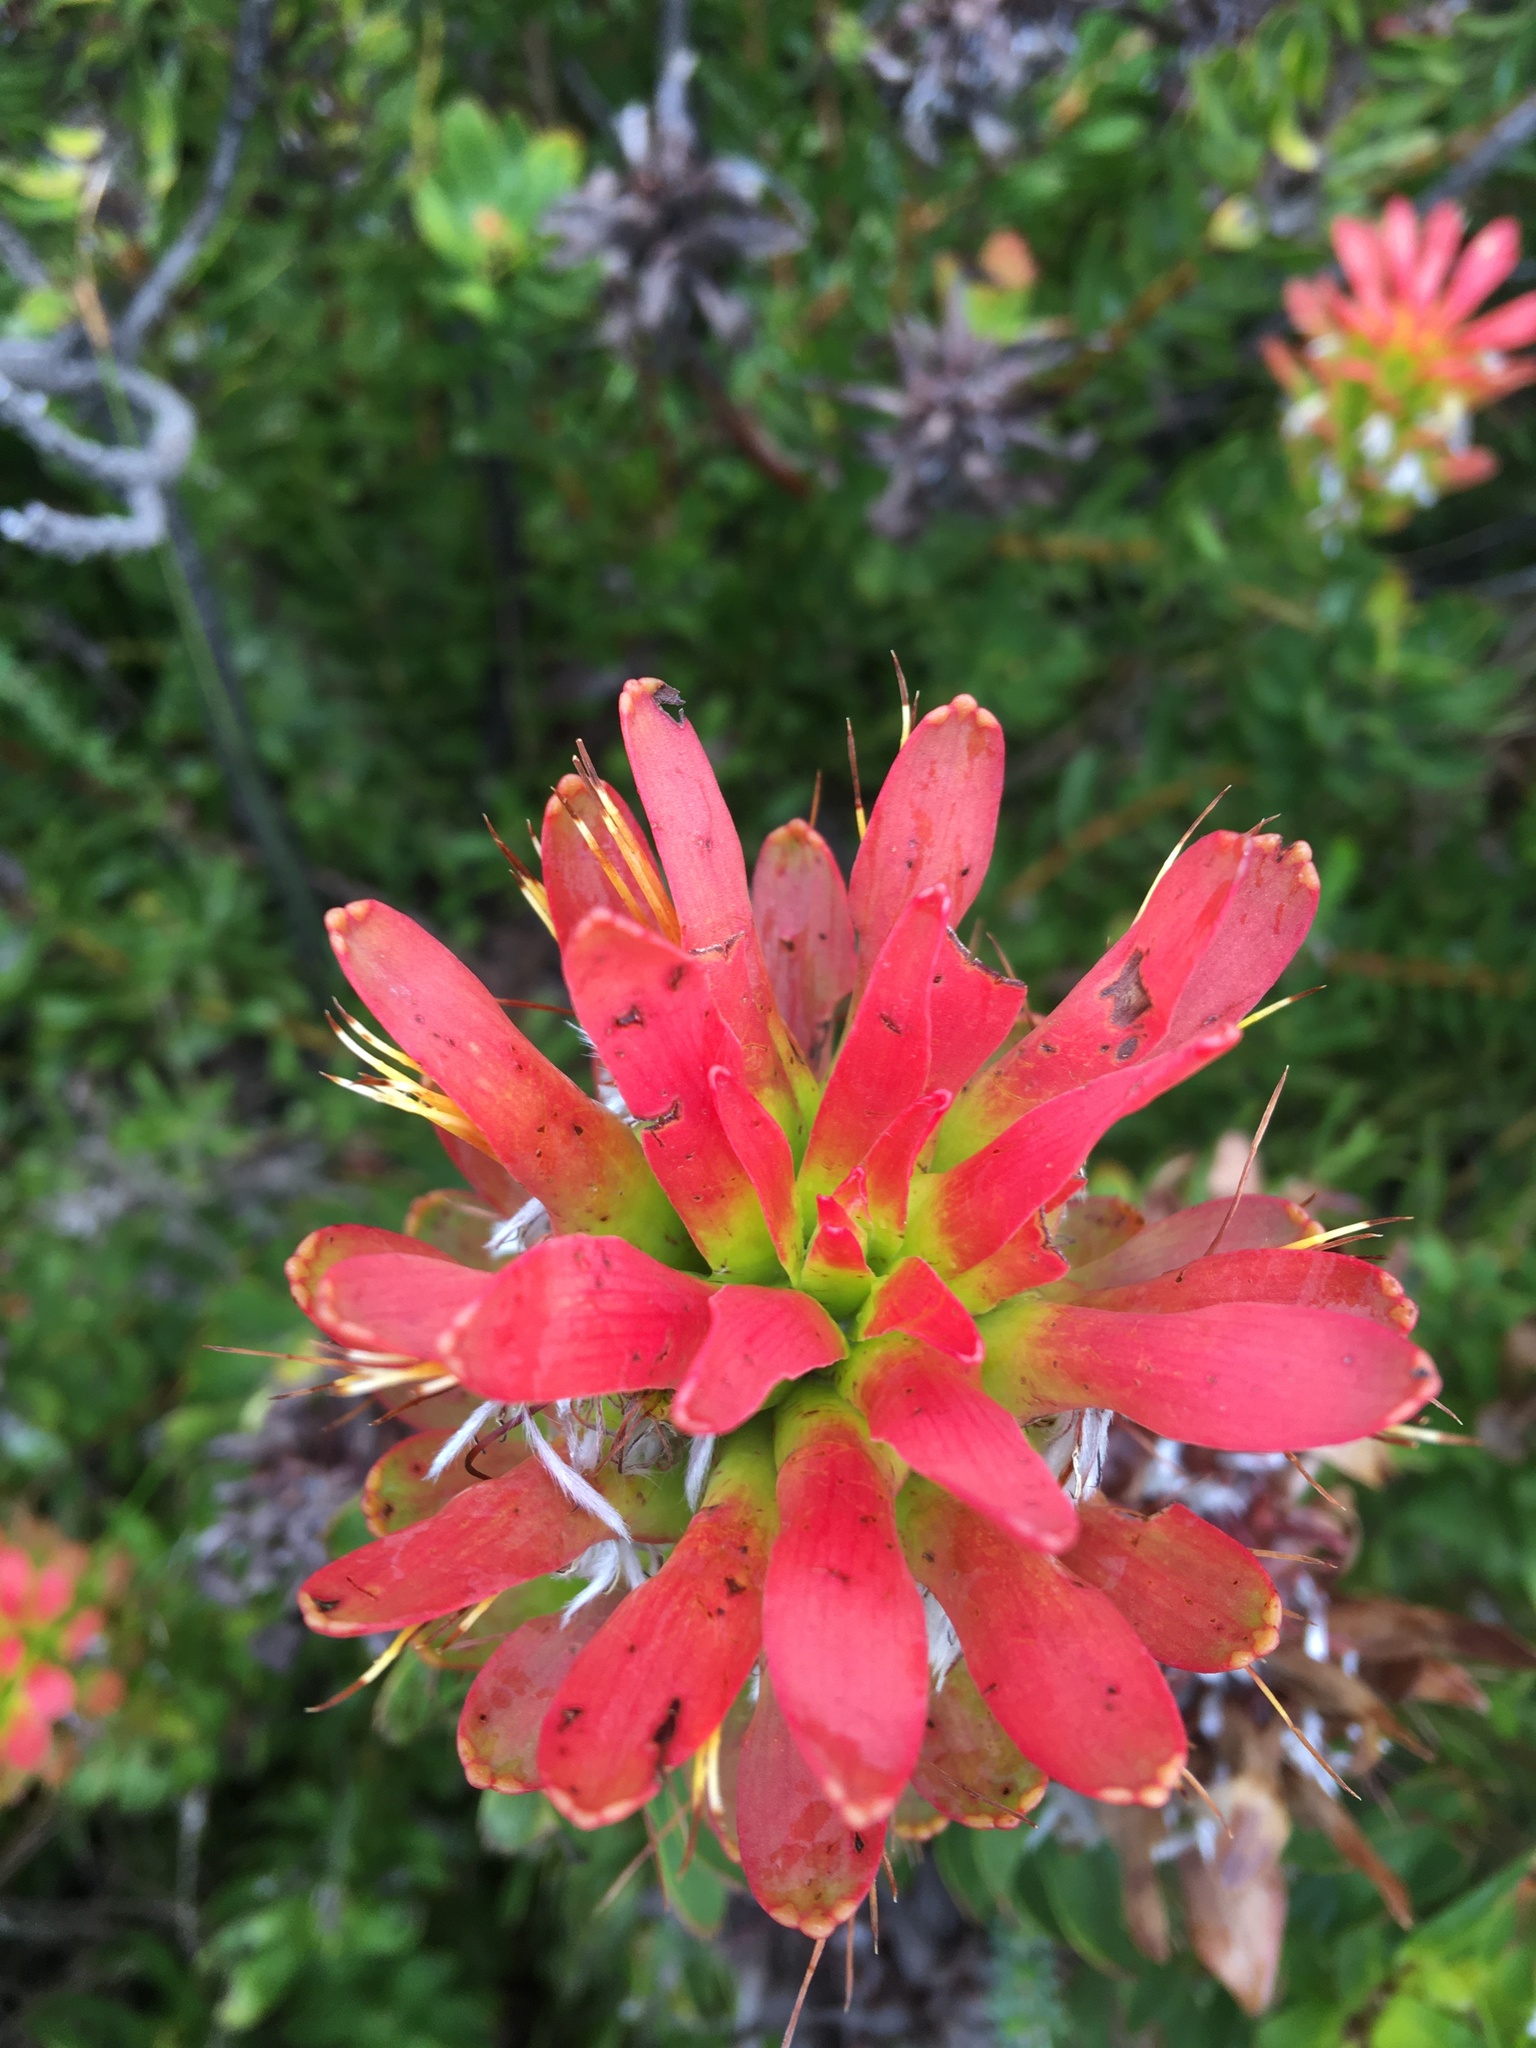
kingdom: Plantae
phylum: Tracheophyta
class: Magnoliopsida
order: Proteales
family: Proteaceae
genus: Mimetes
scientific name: Mimetes cucullatus
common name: Common pagoda
